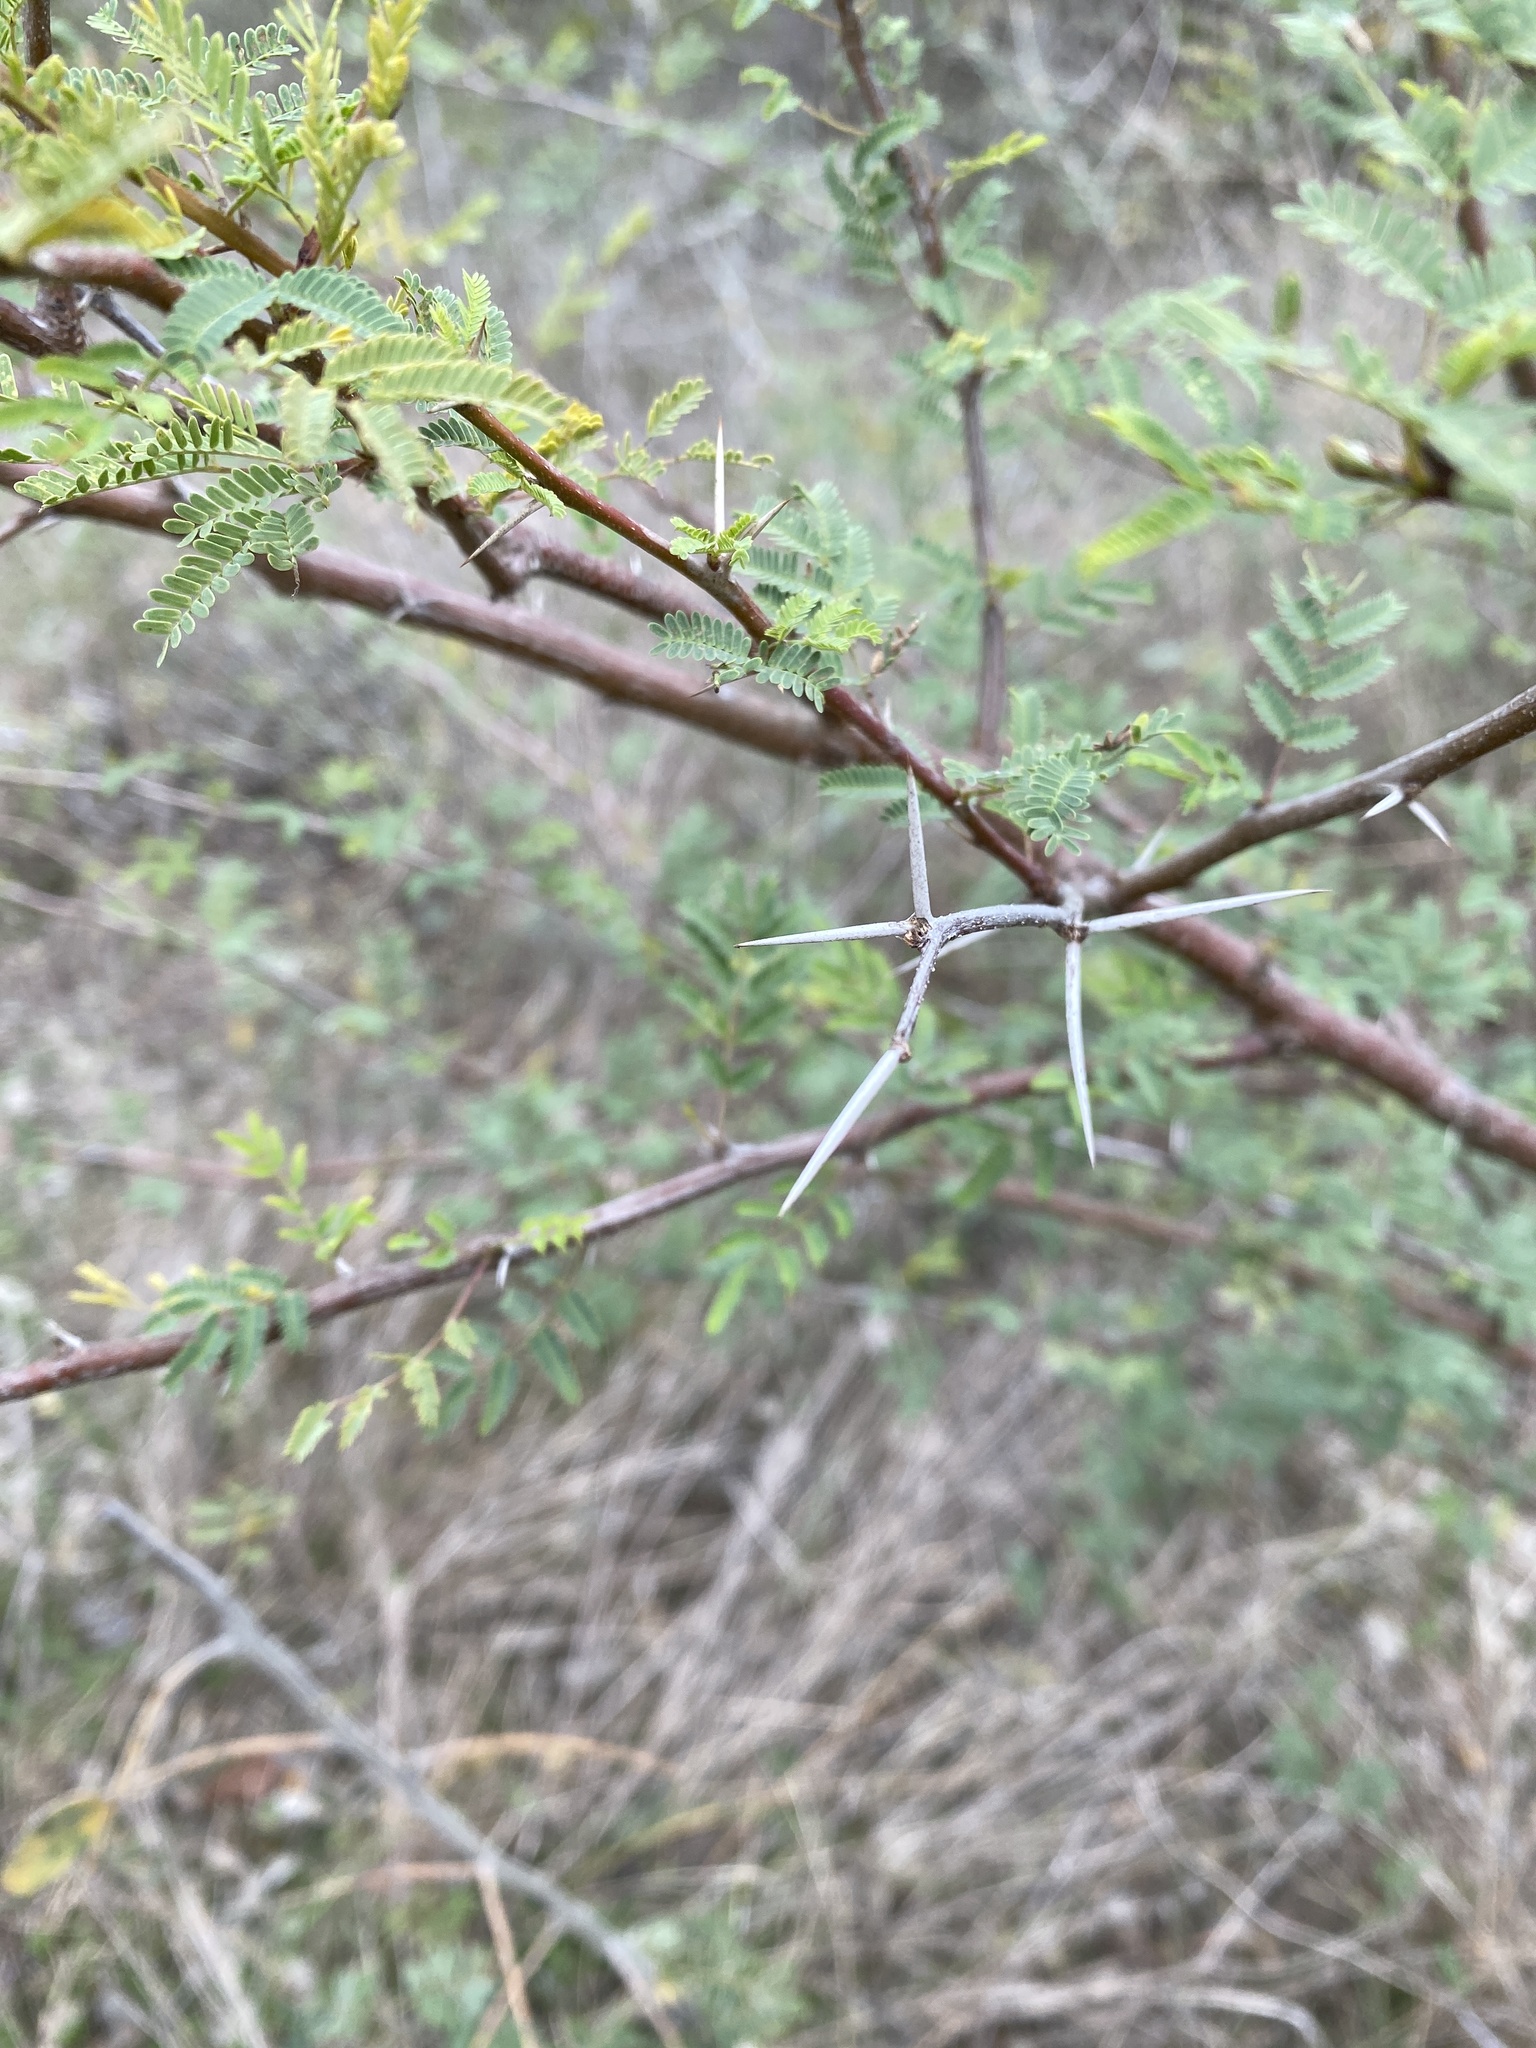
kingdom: Plantae
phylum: Tracheophyta
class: Magnoliopsida
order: Fabales
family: Fabaceae
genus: Vachellia
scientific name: Vachellia farnesiana
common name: Sweet acacia
